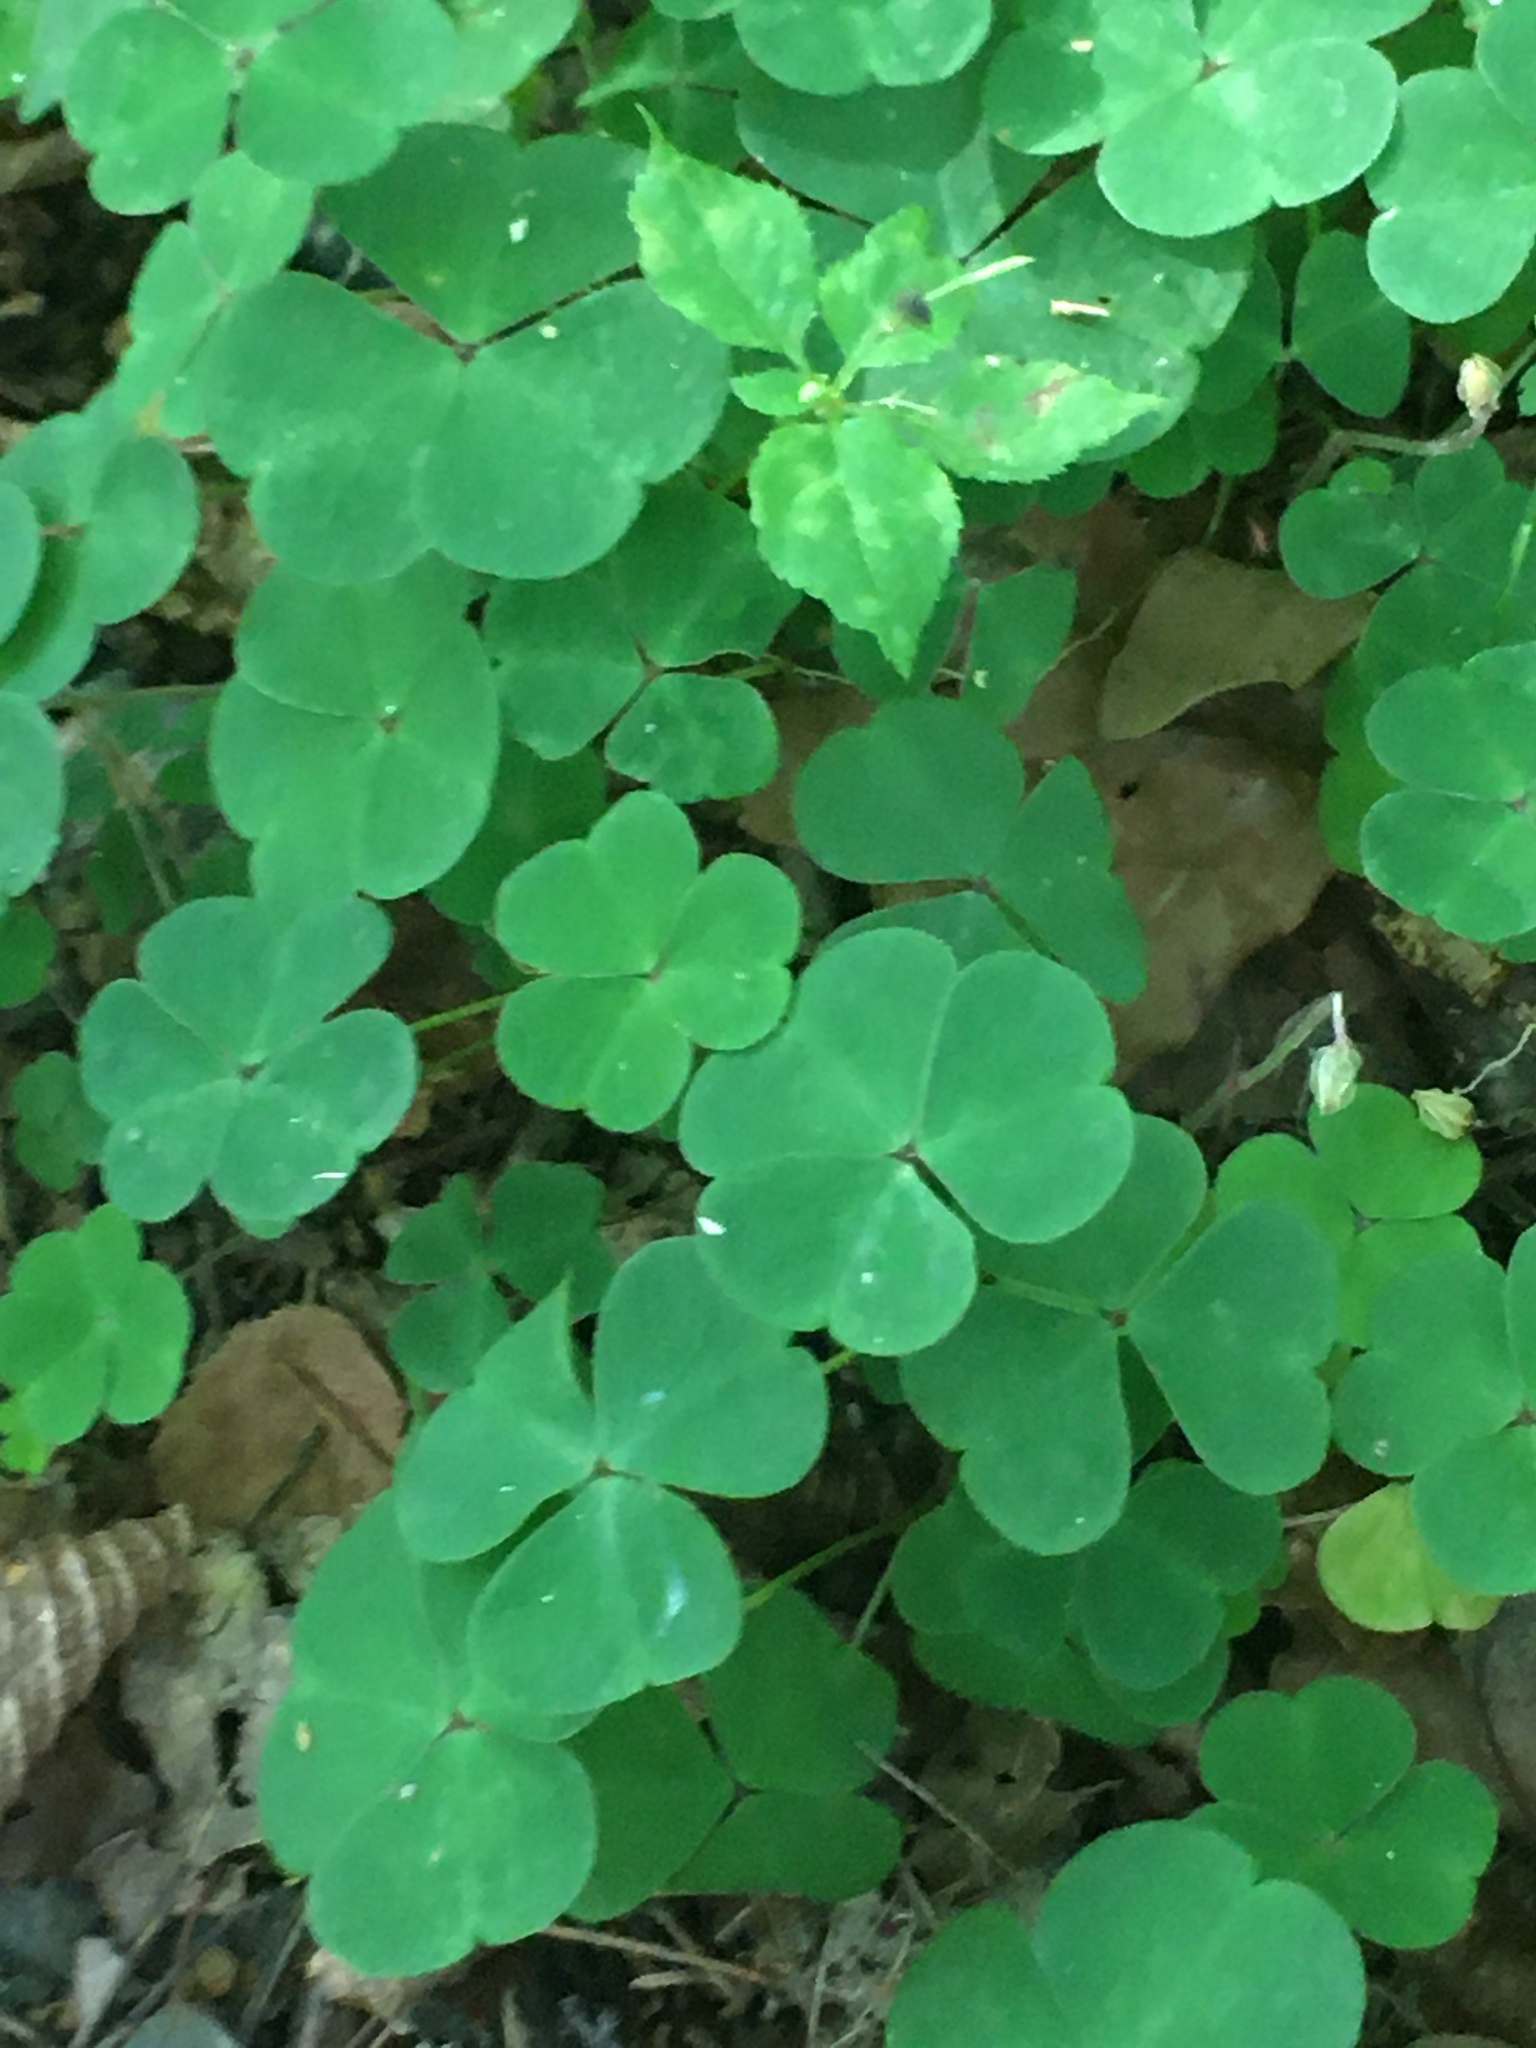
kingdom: Plantae
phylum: Tracheophyta
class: Magnoliopsida
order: Oxalidales
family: Oxalidaceae
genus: Oxalis
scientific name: Oxalis acetosella
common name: Wood-sorrel
